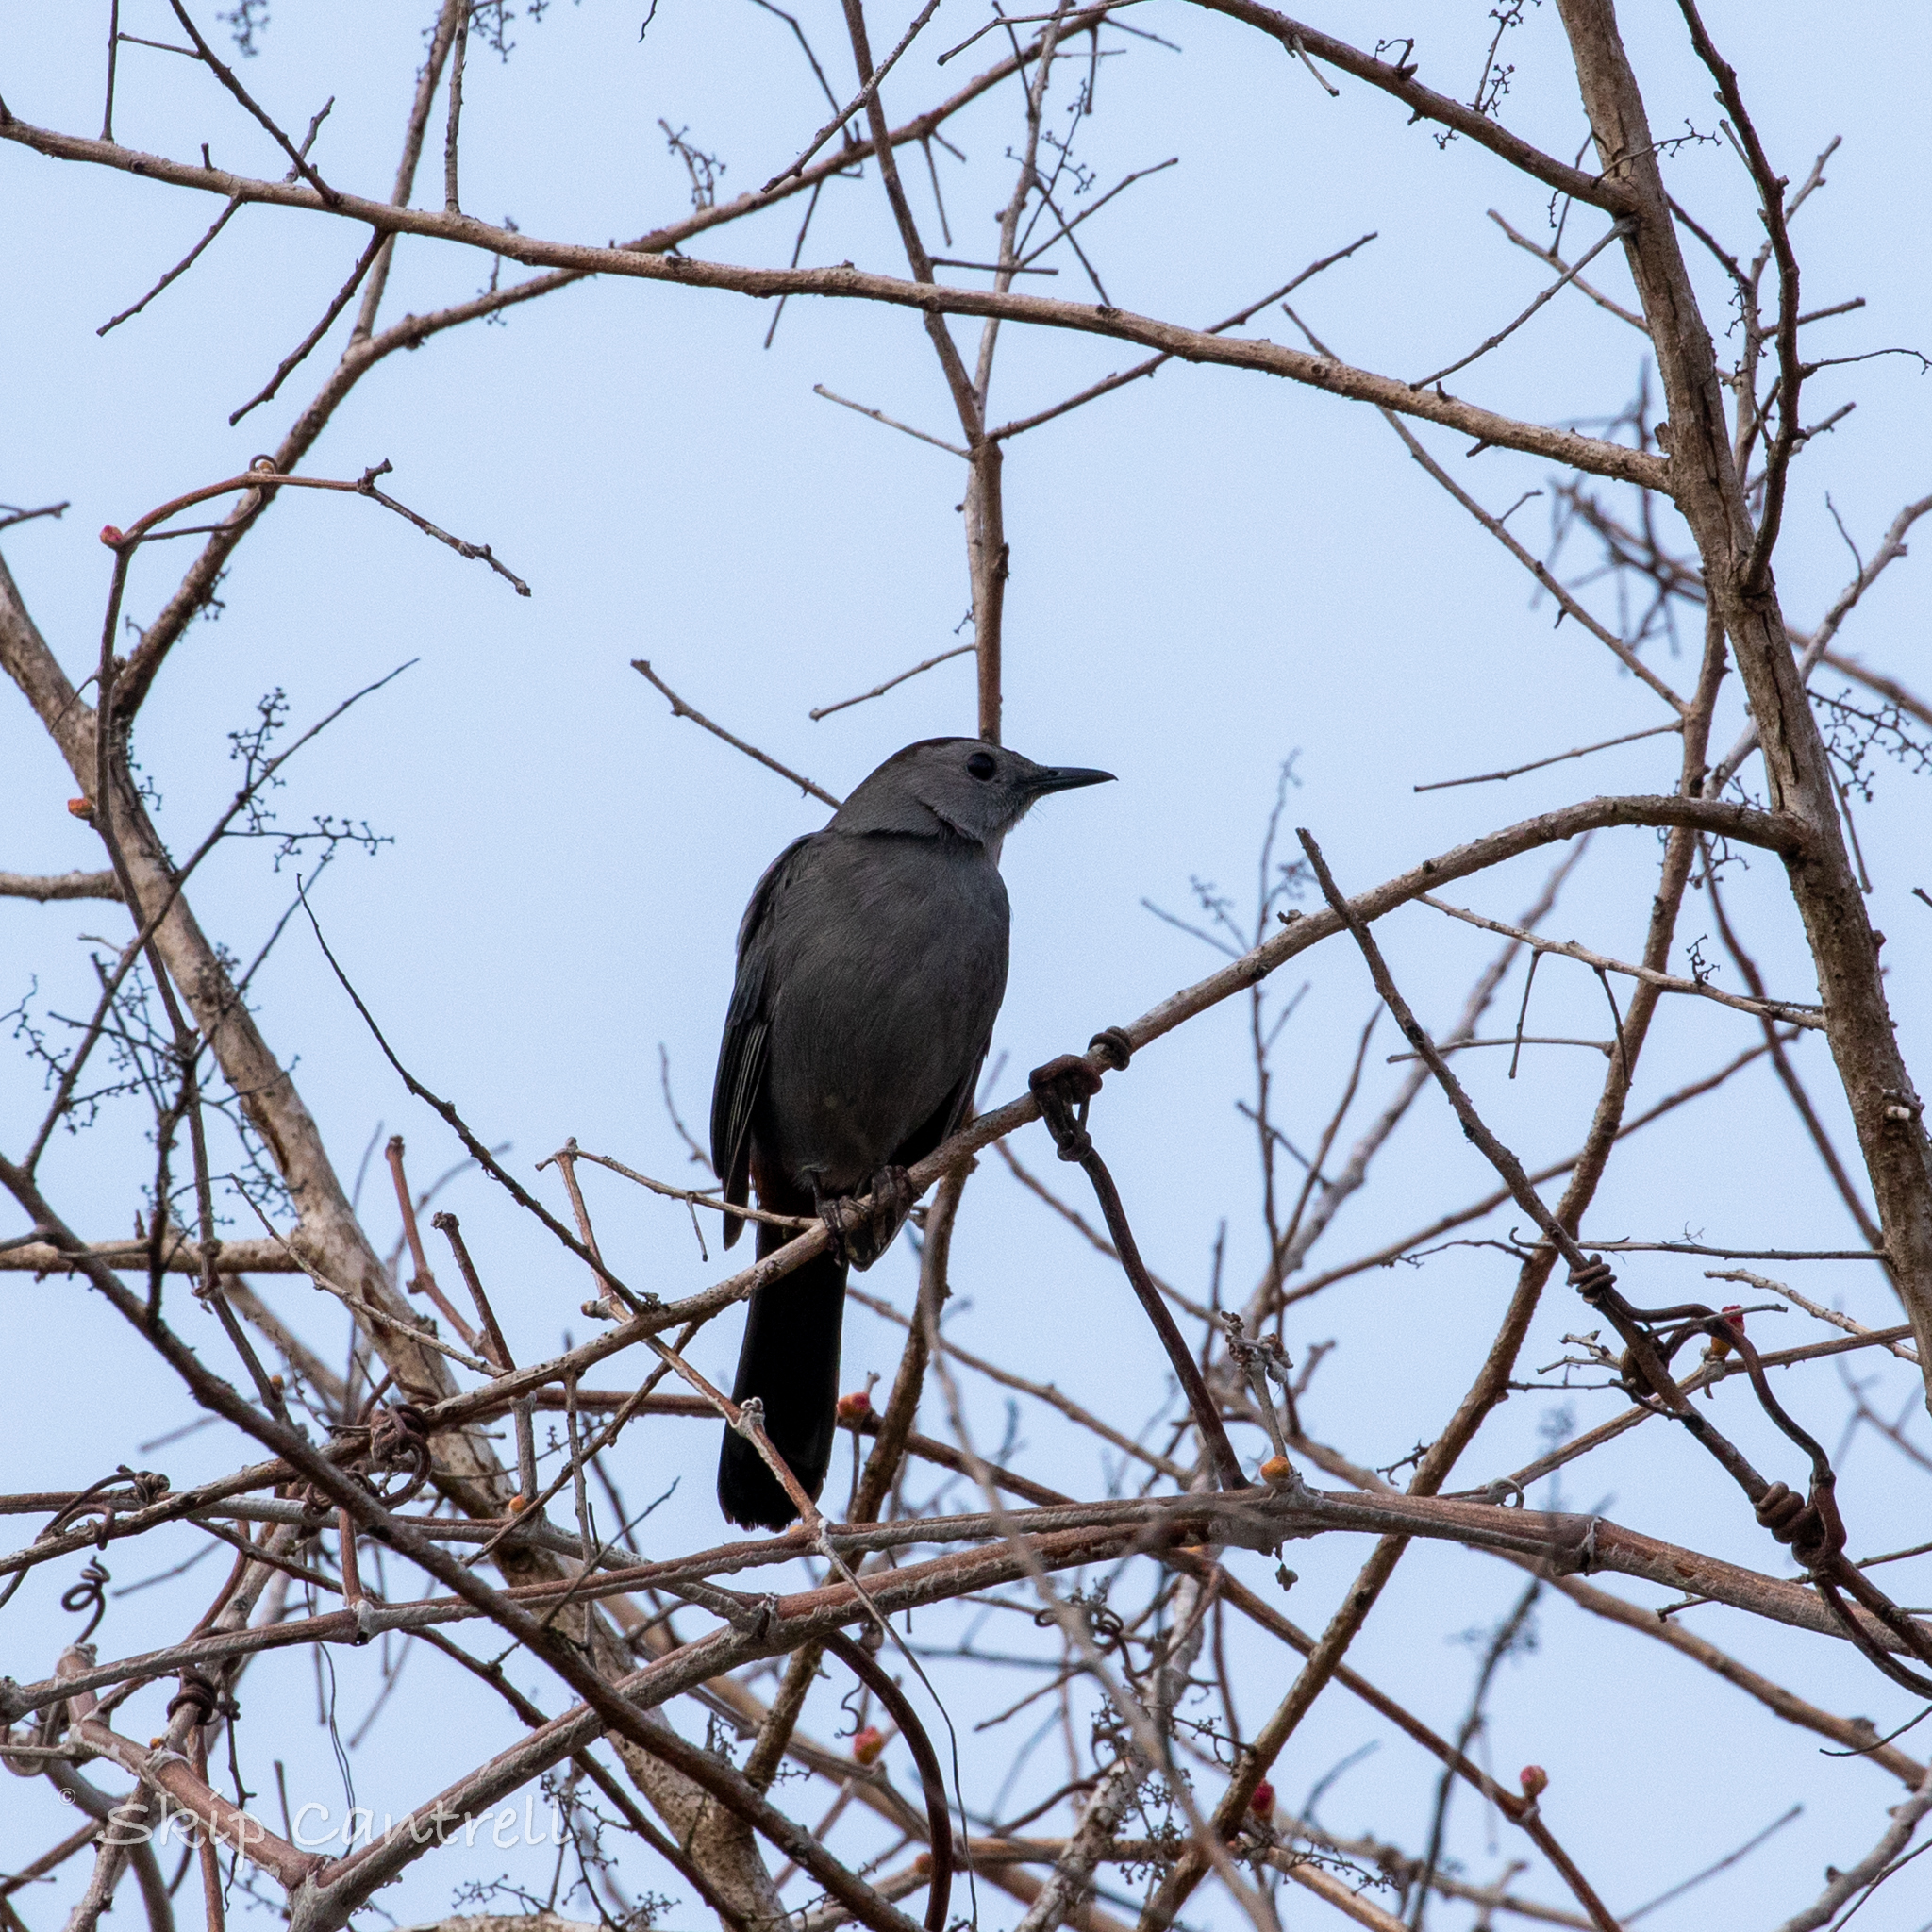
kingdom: Animalia
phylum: Chordata
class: Aves
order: Passeriformes
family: Mimidae
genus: Dumetella
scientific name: Dumetella carolinensis
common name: Gray catbird
